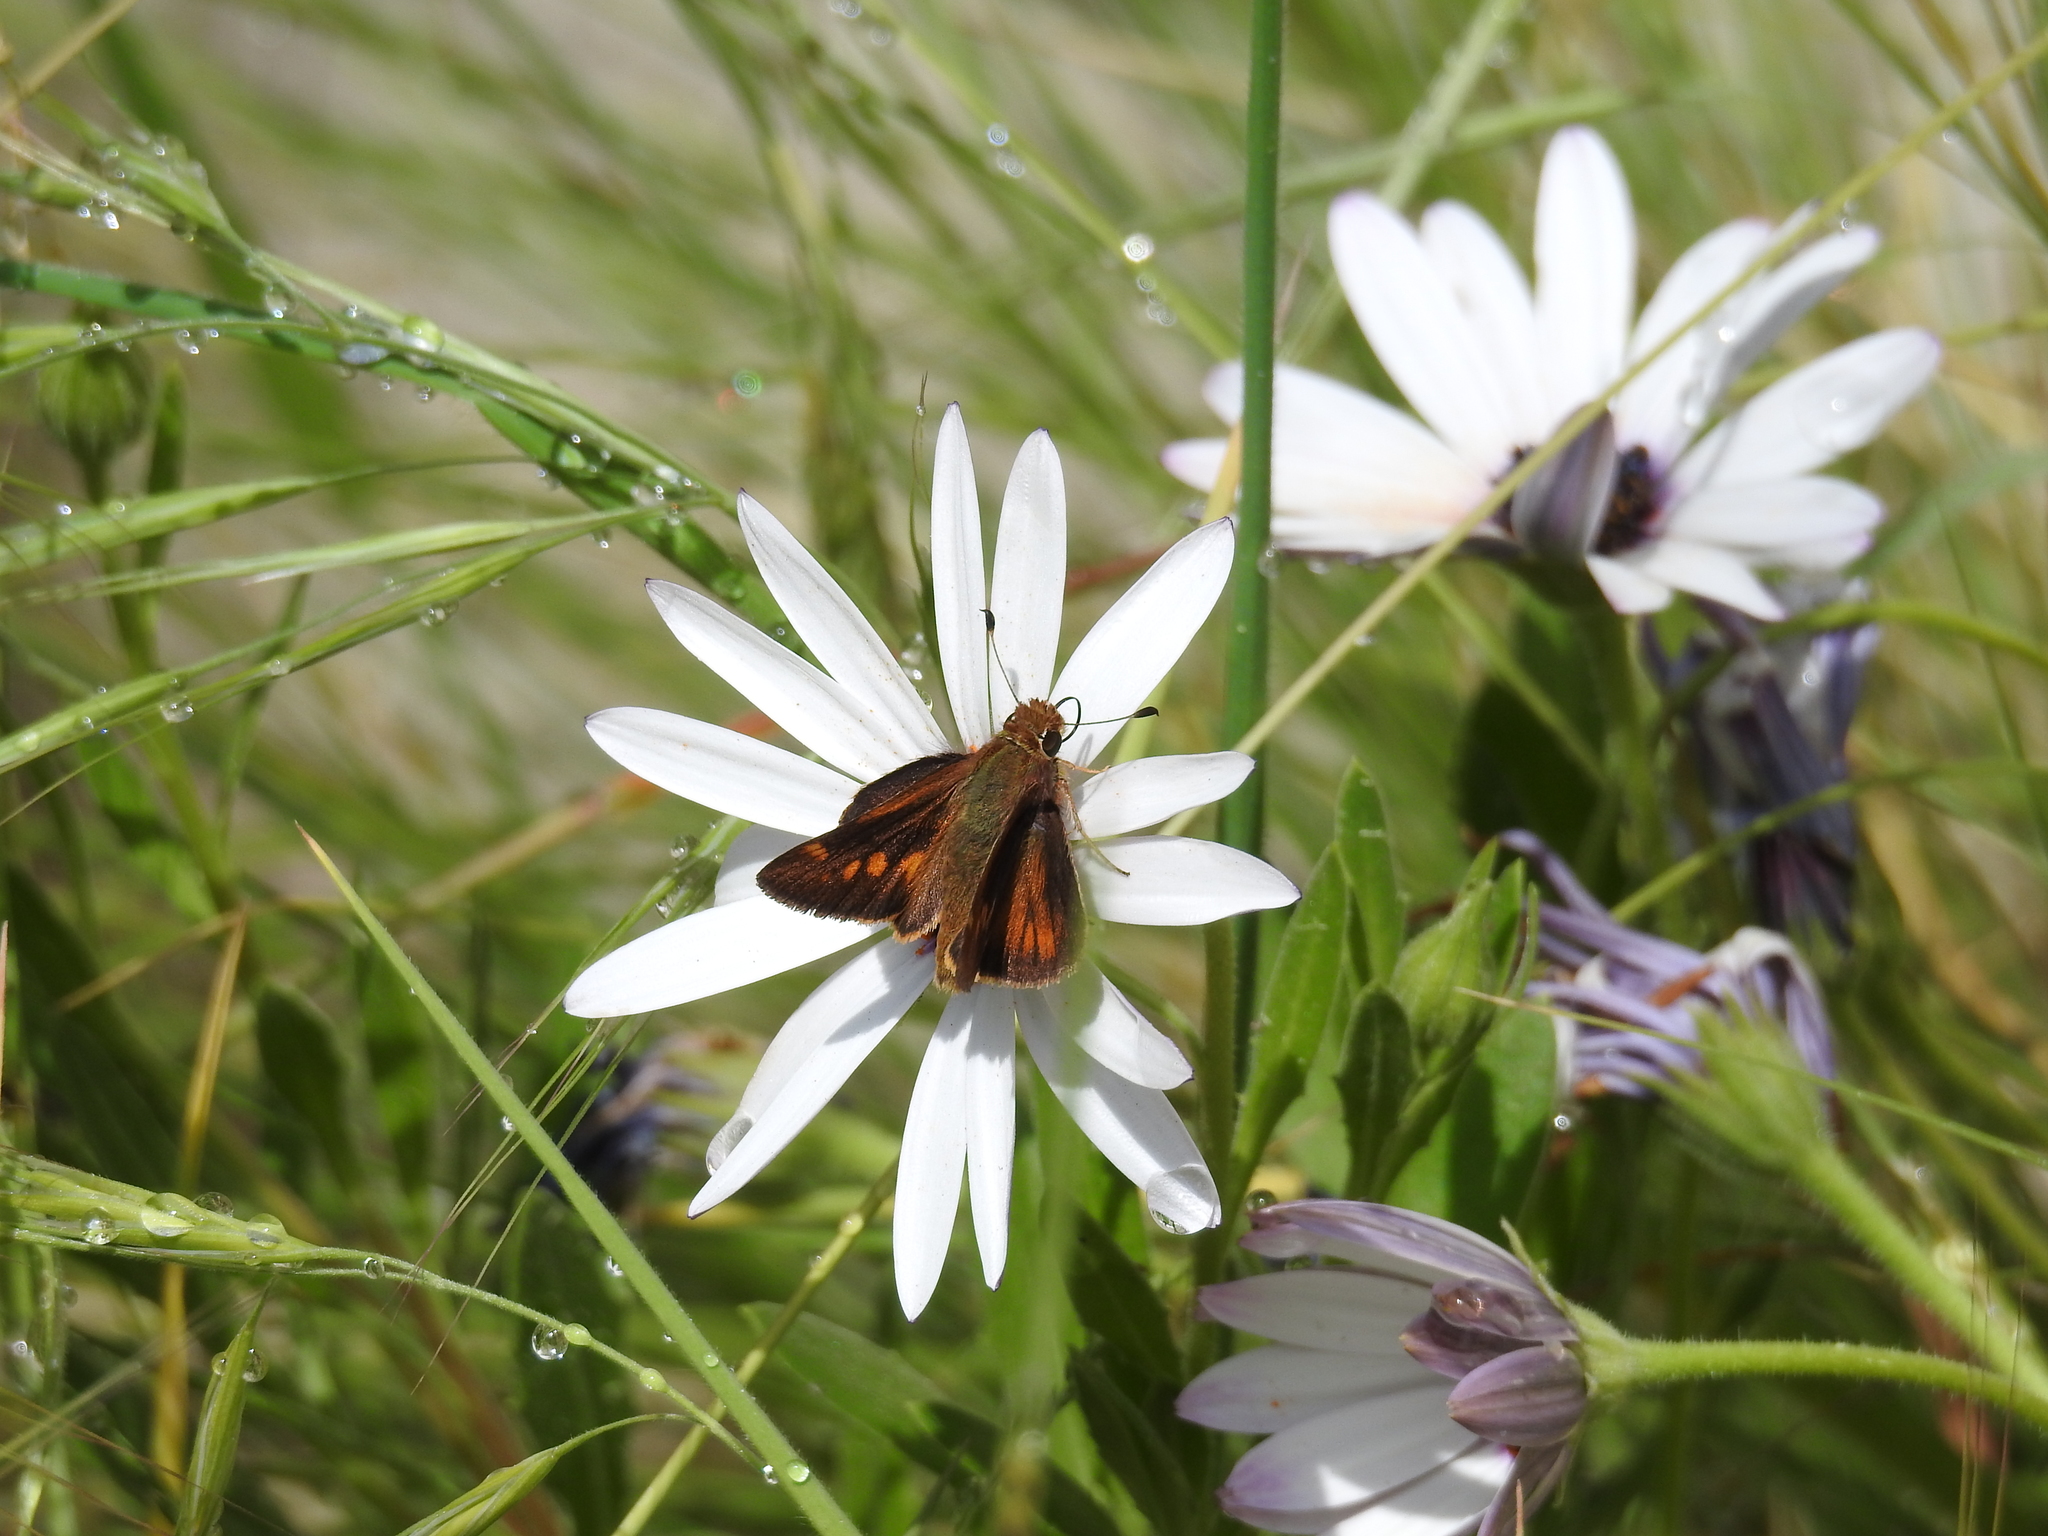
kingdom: Animalia
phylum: Arthropoda
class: Insecta
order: Lepidoptera
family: Hesperiidae
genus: Lon
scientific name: Lon melane
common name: Umber skipper
